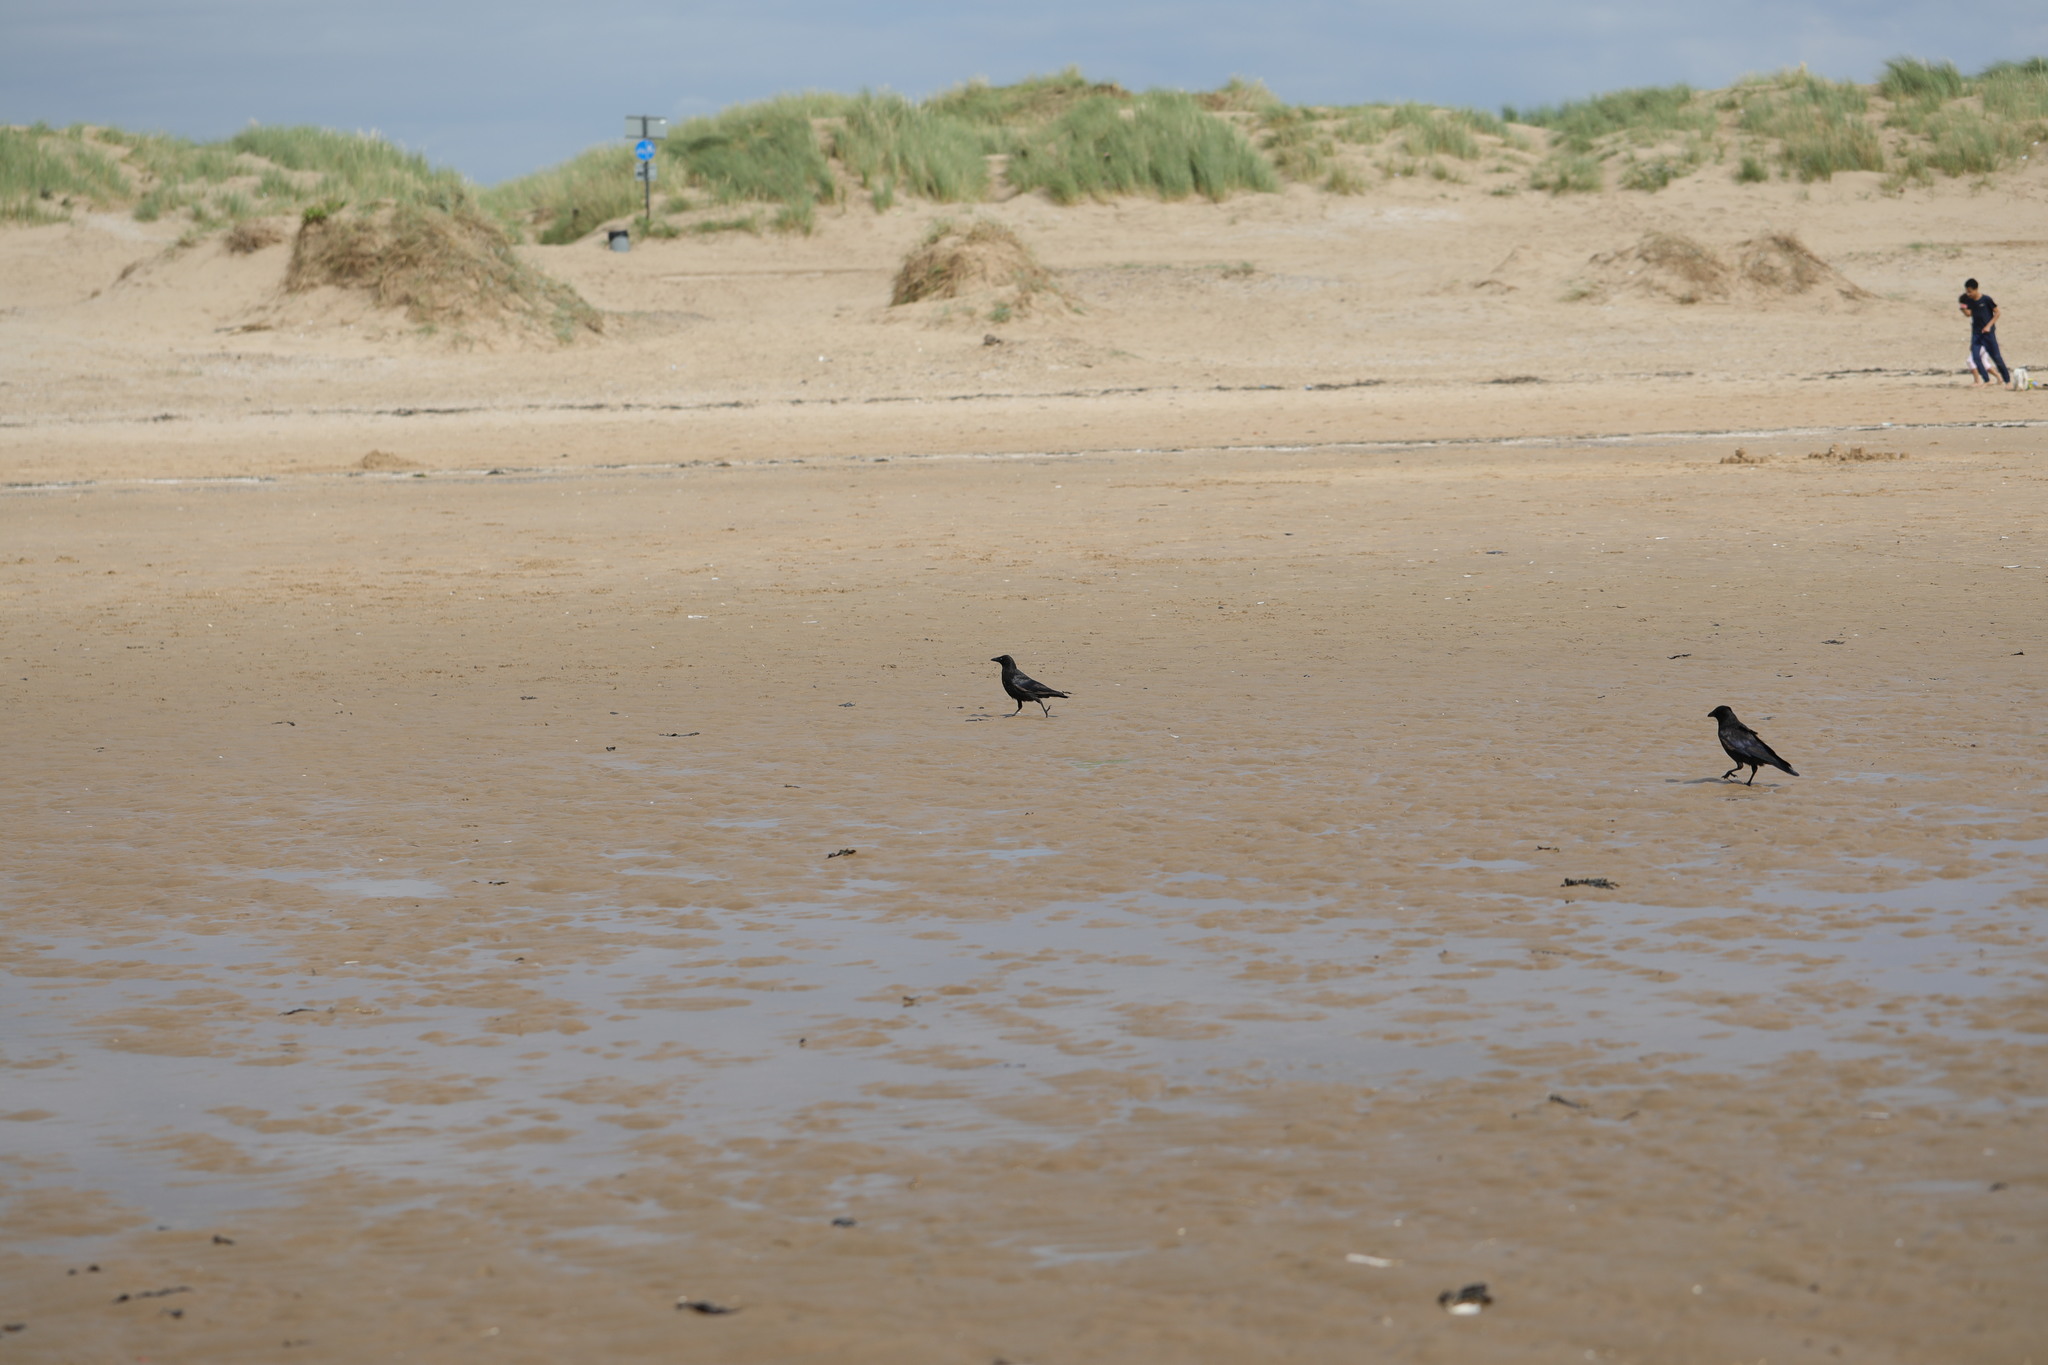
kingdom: Animalia
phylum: Chordata
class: Aves
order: Passeriformes
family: Corvidae
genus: Corvus
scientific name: Corvus corone
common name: Carrion crow
